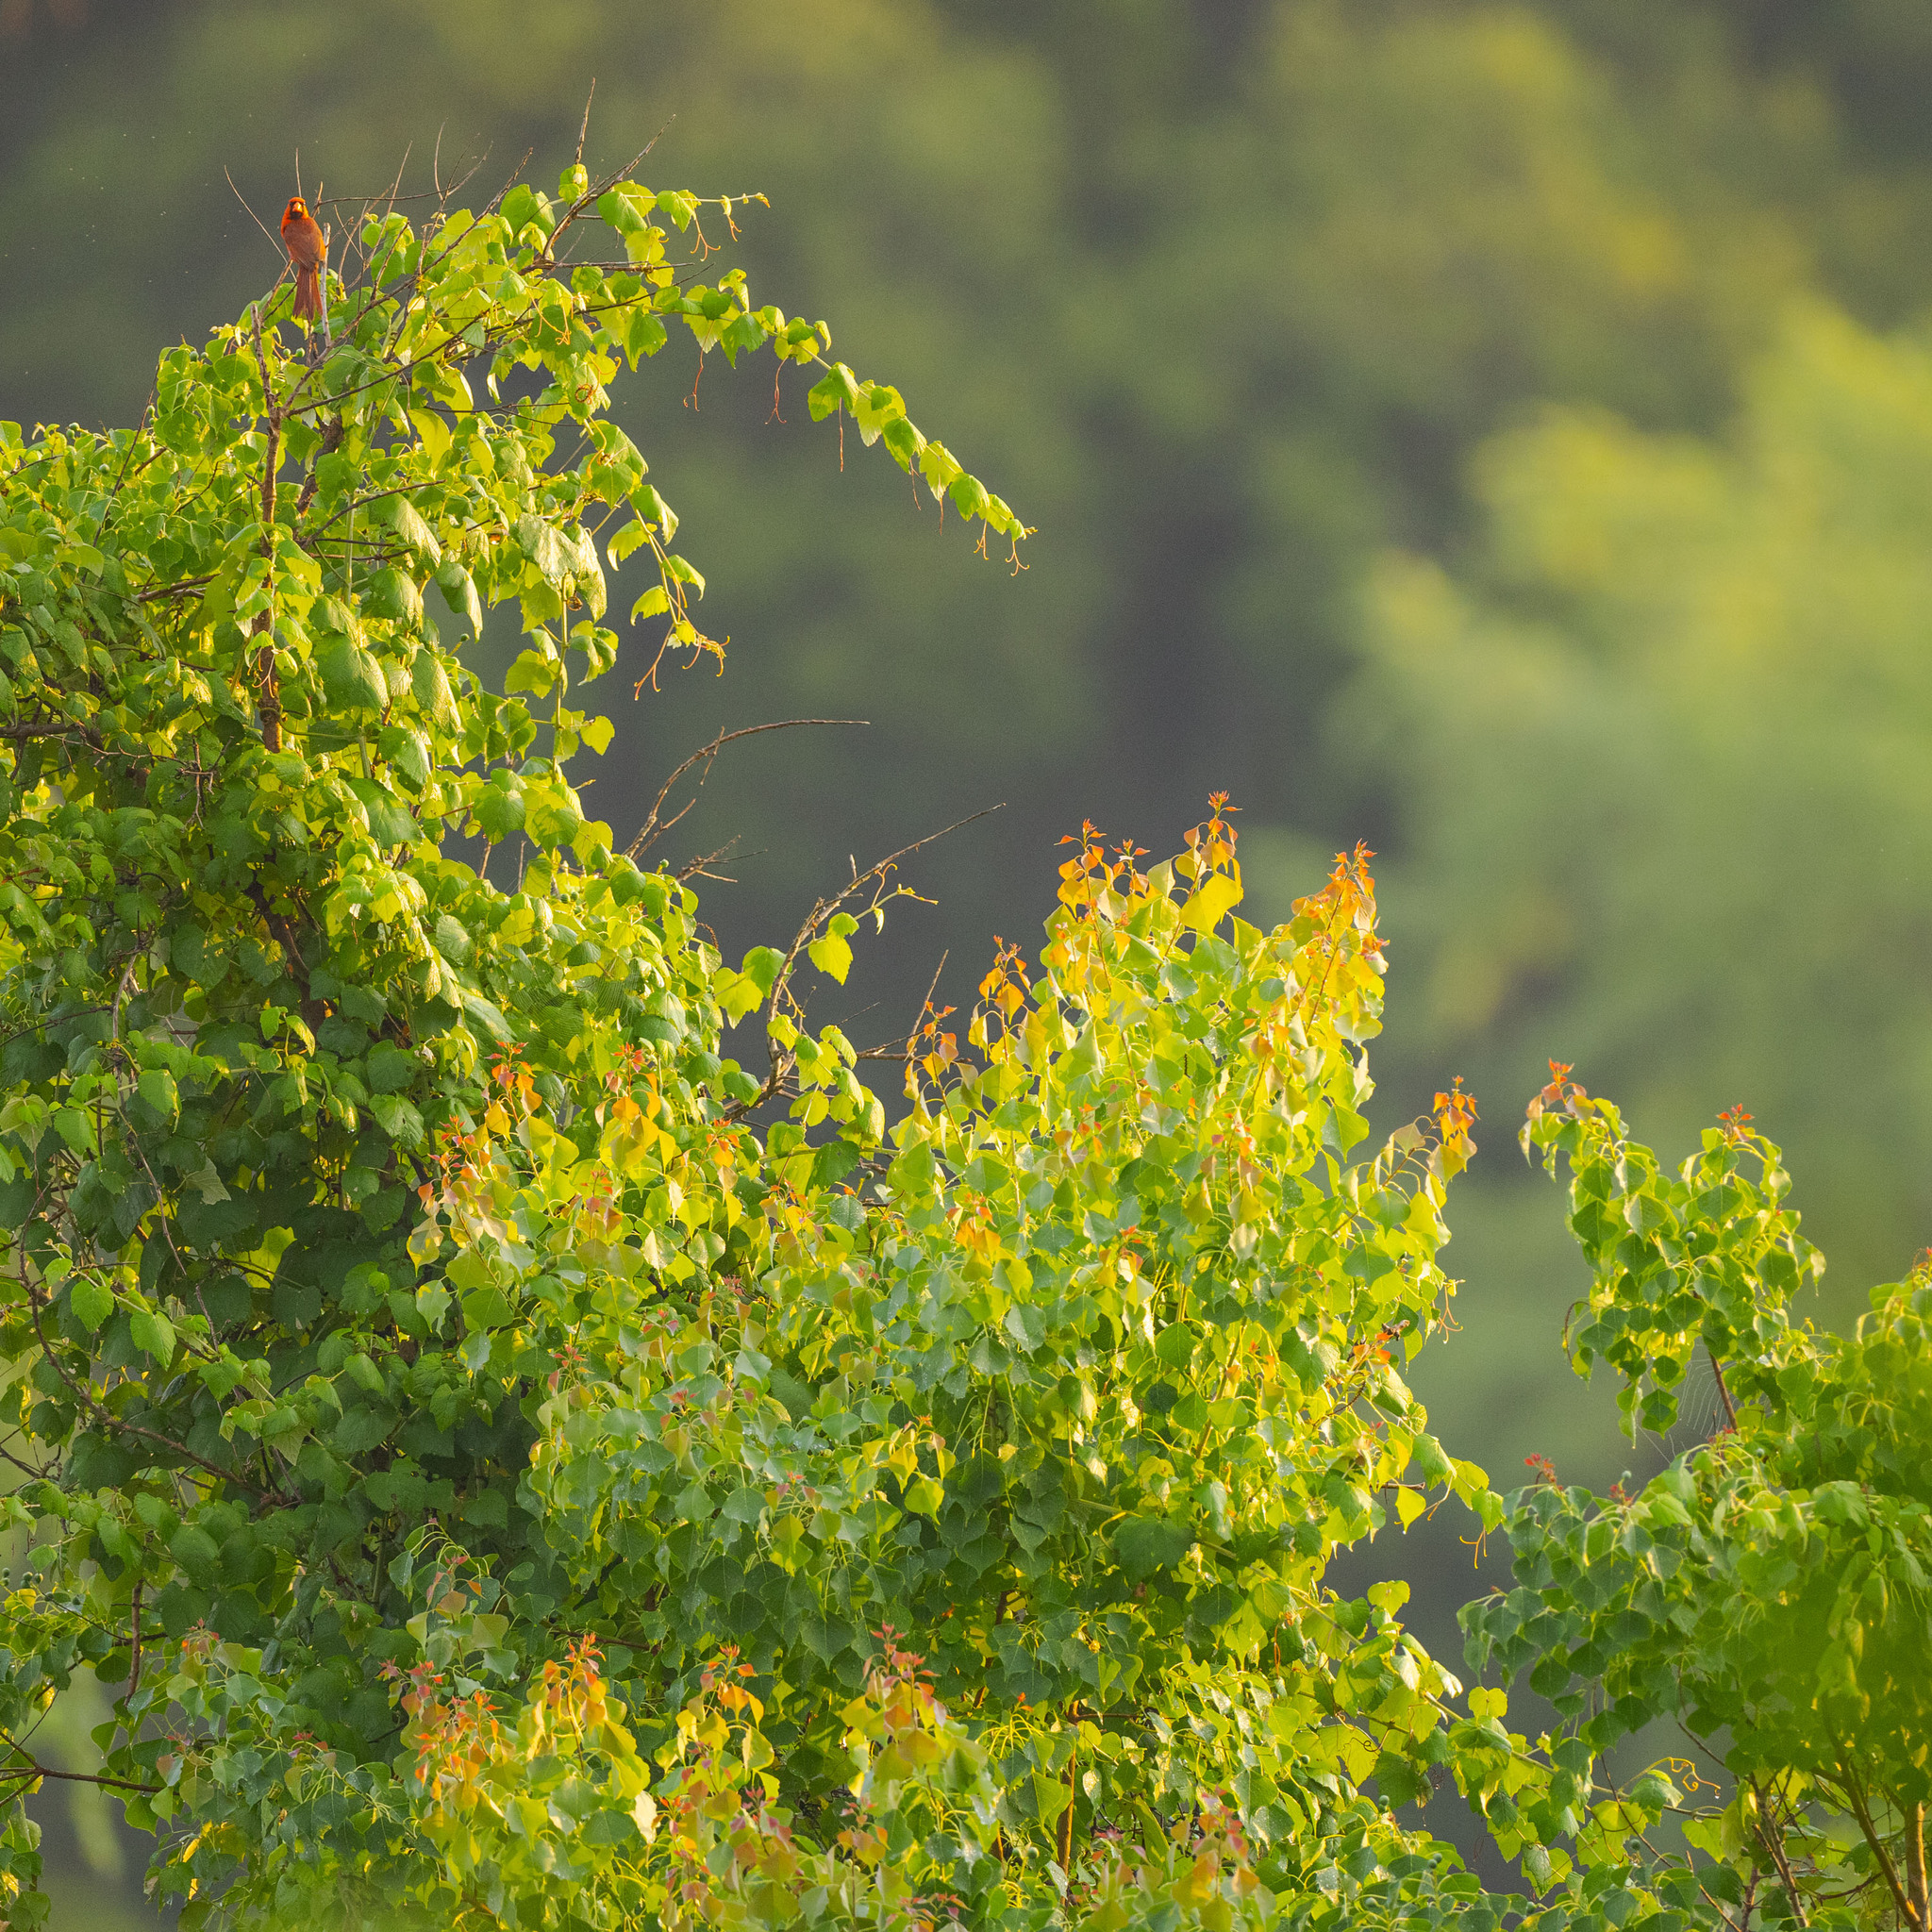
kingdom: Plantae
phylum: Tracheophyta
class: Magnoliopsida
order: Malpighiales
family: Euphorbiaceae
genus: Triadica
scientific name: Triadica sebifera
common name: Chinese tallow
